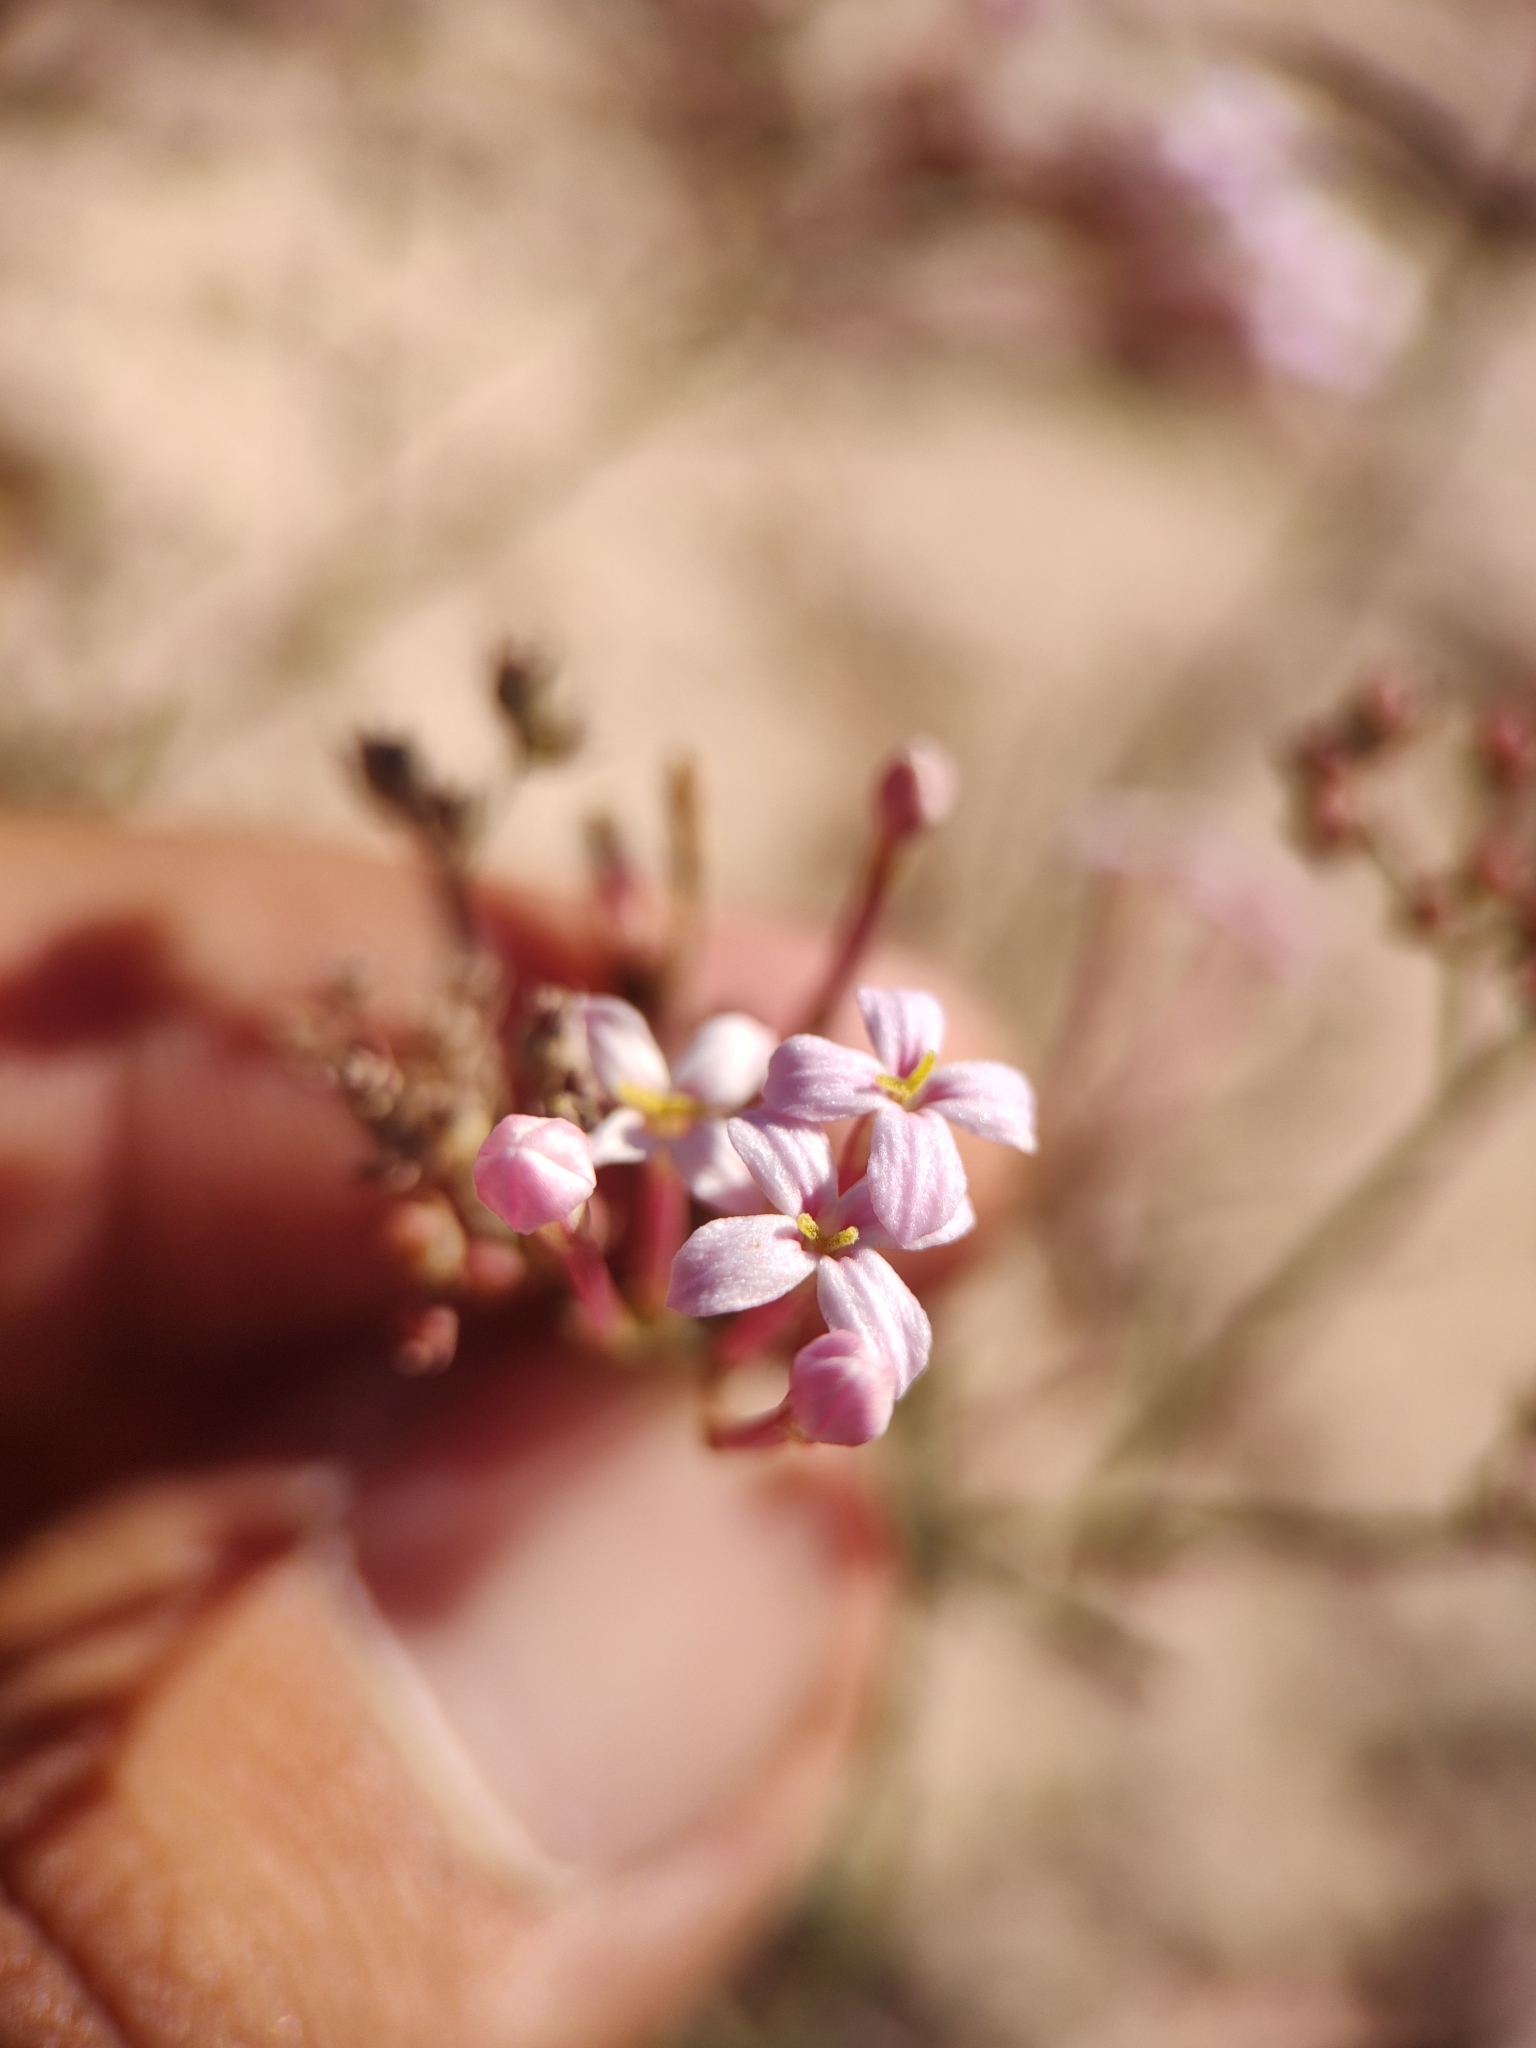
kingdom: Plantae
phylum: Tracheophyta
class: Magnoliopsida
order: Gentianales
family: Rubiaceae
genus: Stenotis
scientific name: Stenotis brevipes
